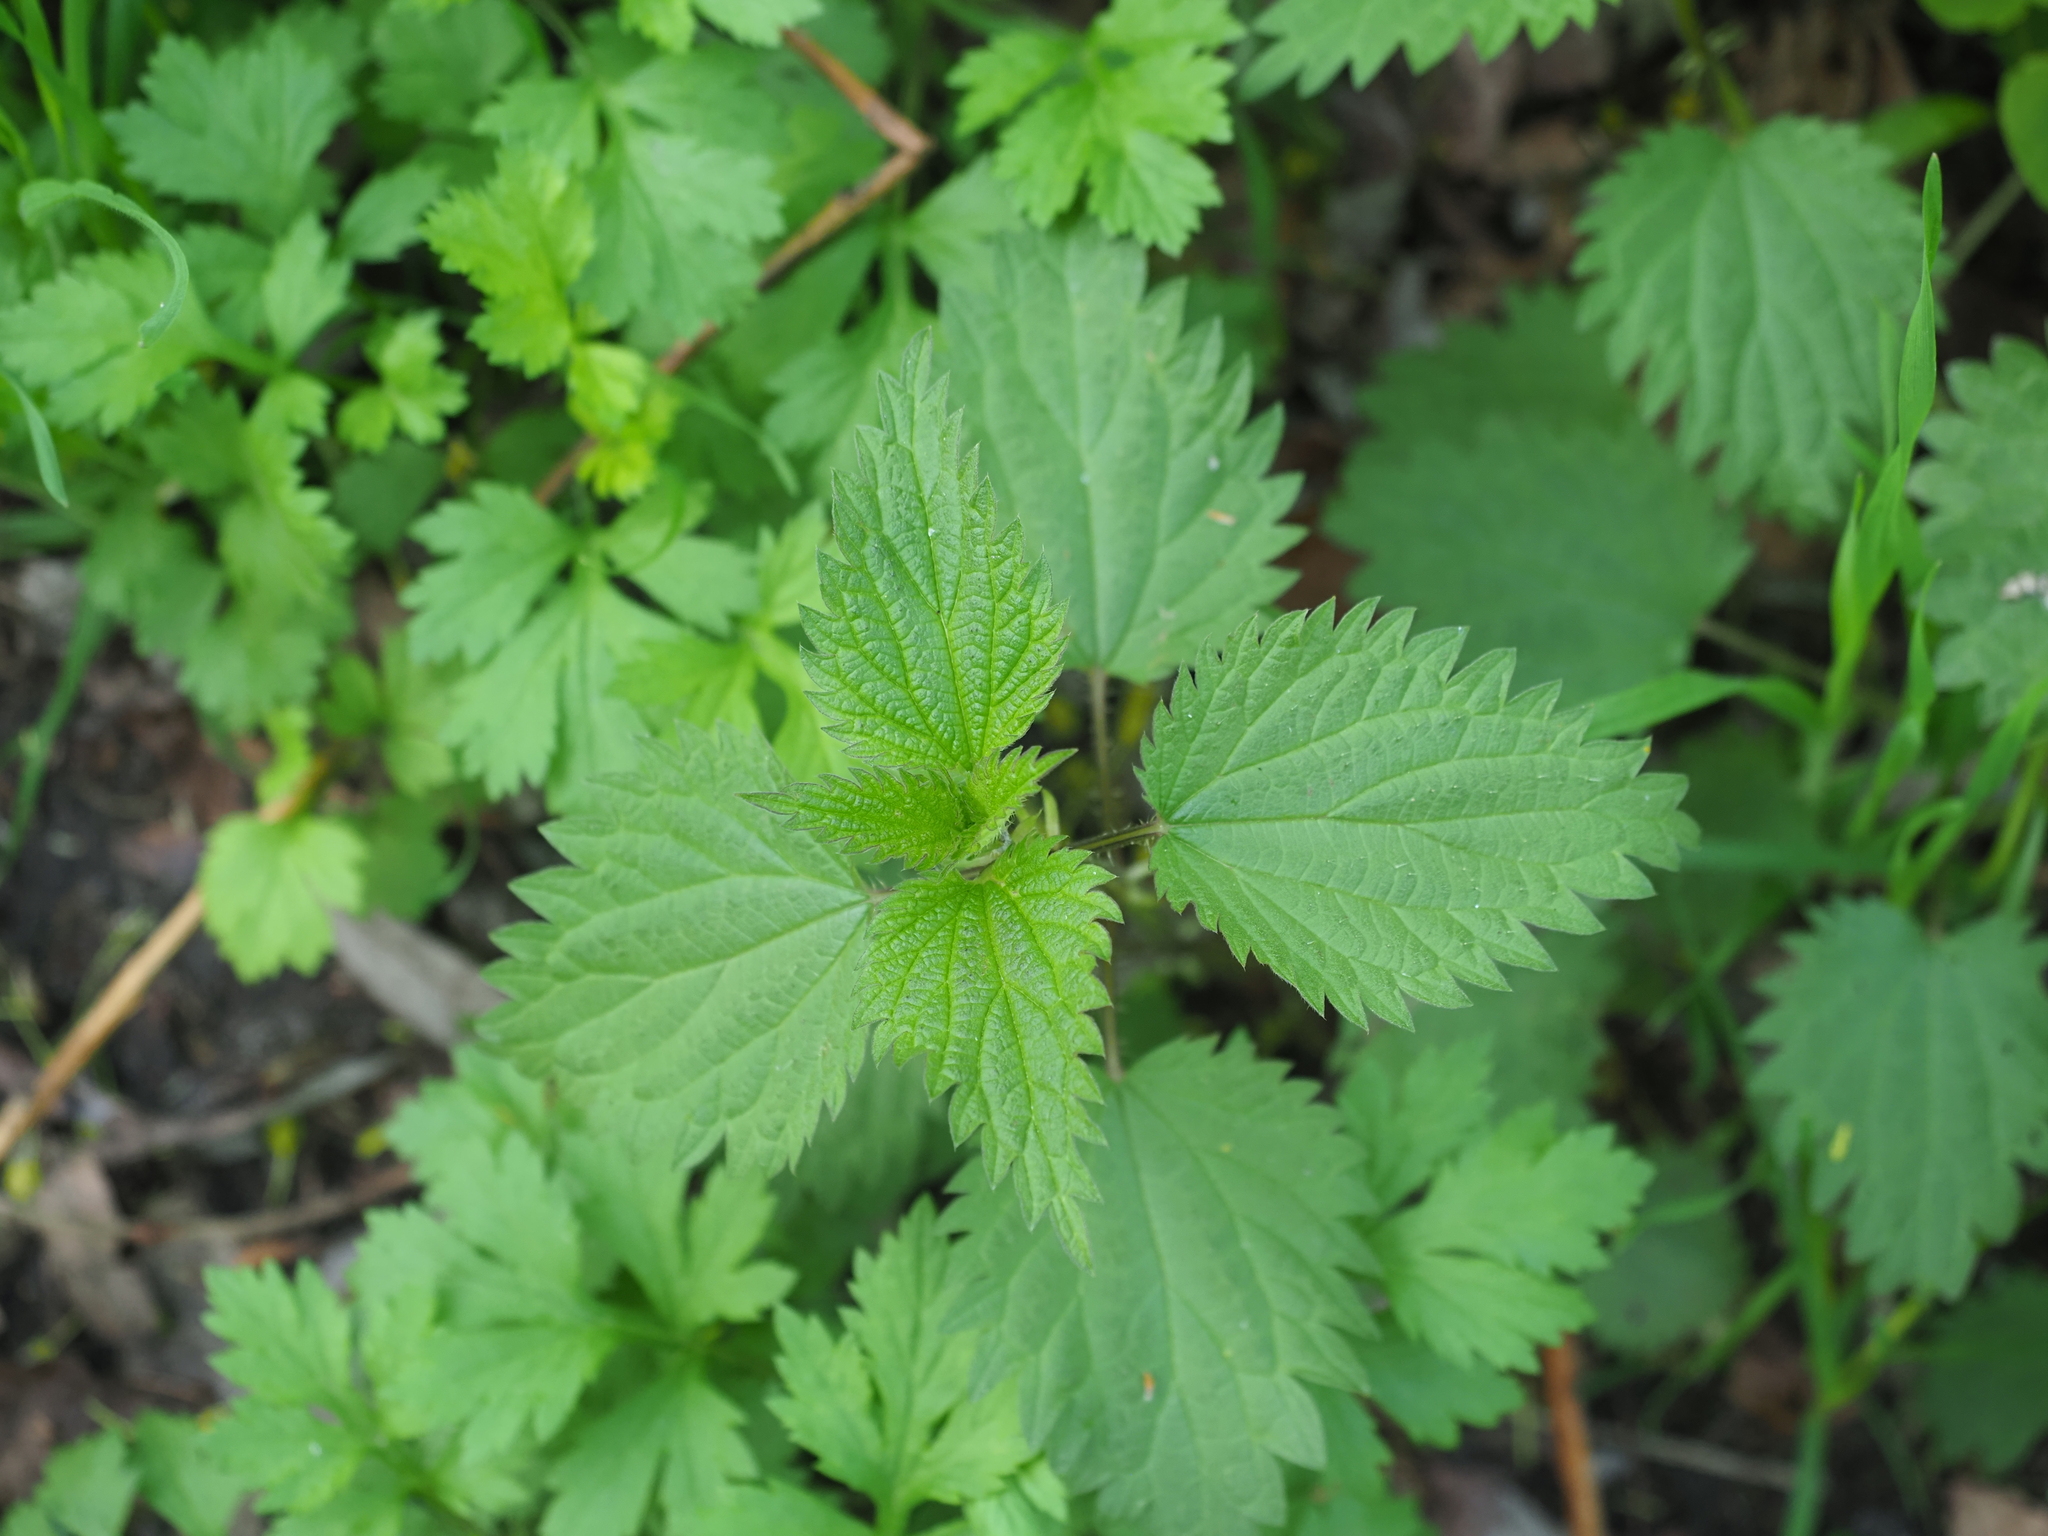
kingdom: Plantae
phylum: Tracheophyta
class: Magnoliopsida
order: Rosales
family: Urticaceae
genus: Urtica
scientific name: Urtica dioica
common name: Common nettle
